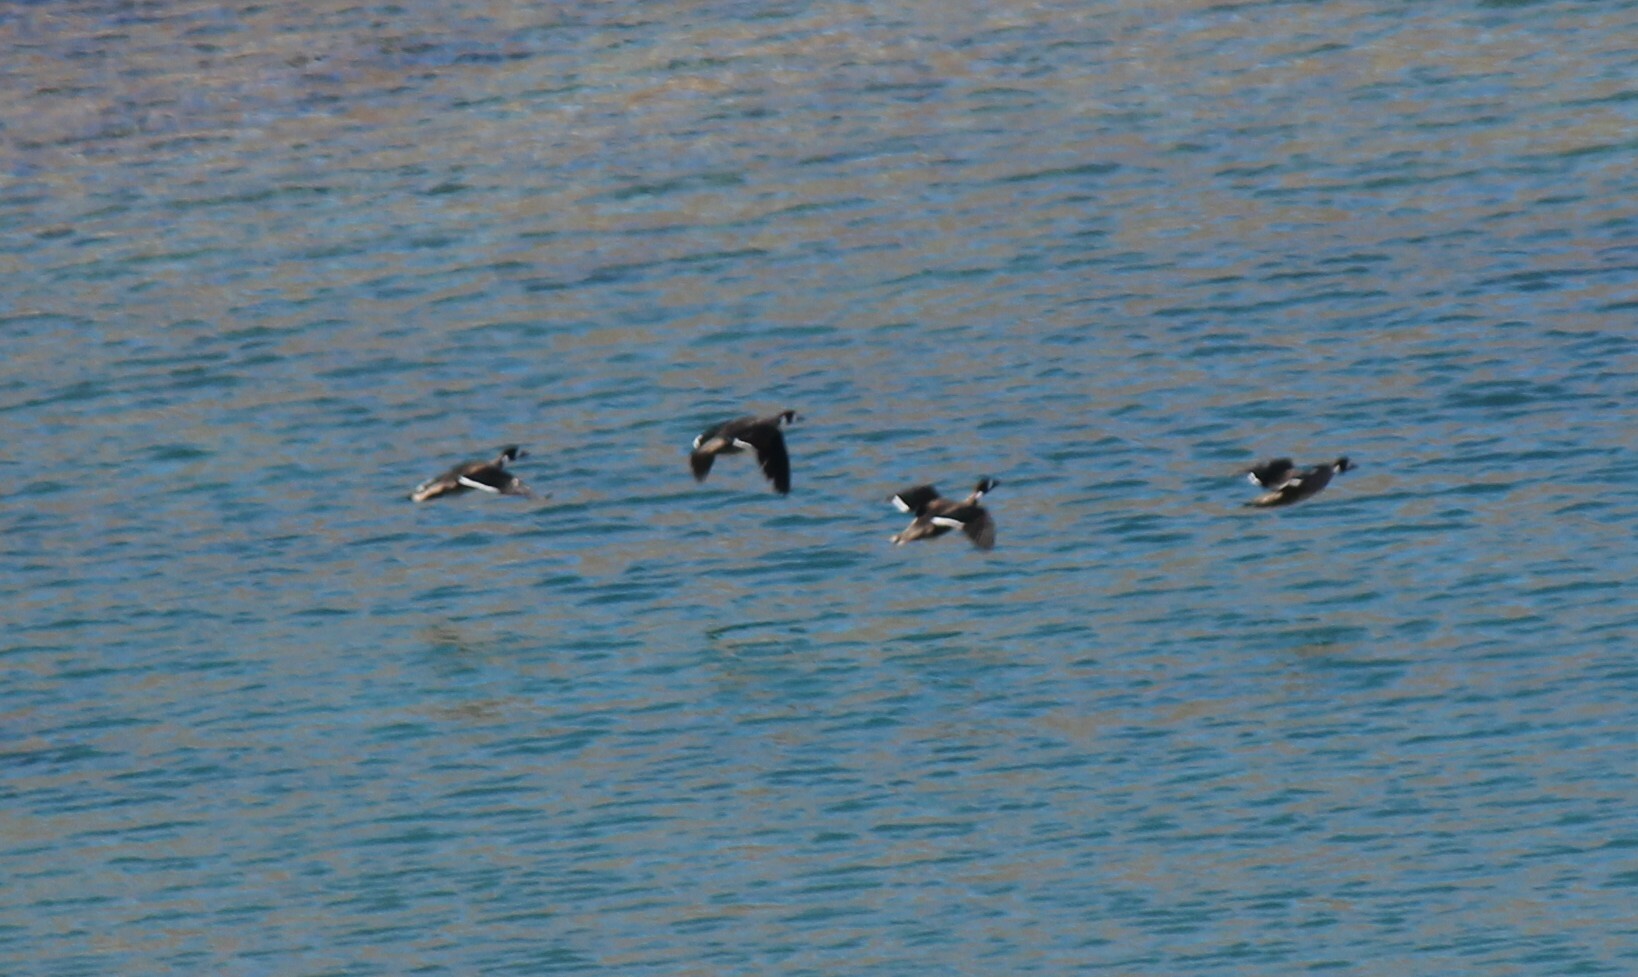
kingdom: Animalia
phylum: Chordata
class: Aves
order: Anseriformes
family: Anatidae
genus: Speculanas
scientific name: Speculanas specularis
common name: Bronze-winged duck
